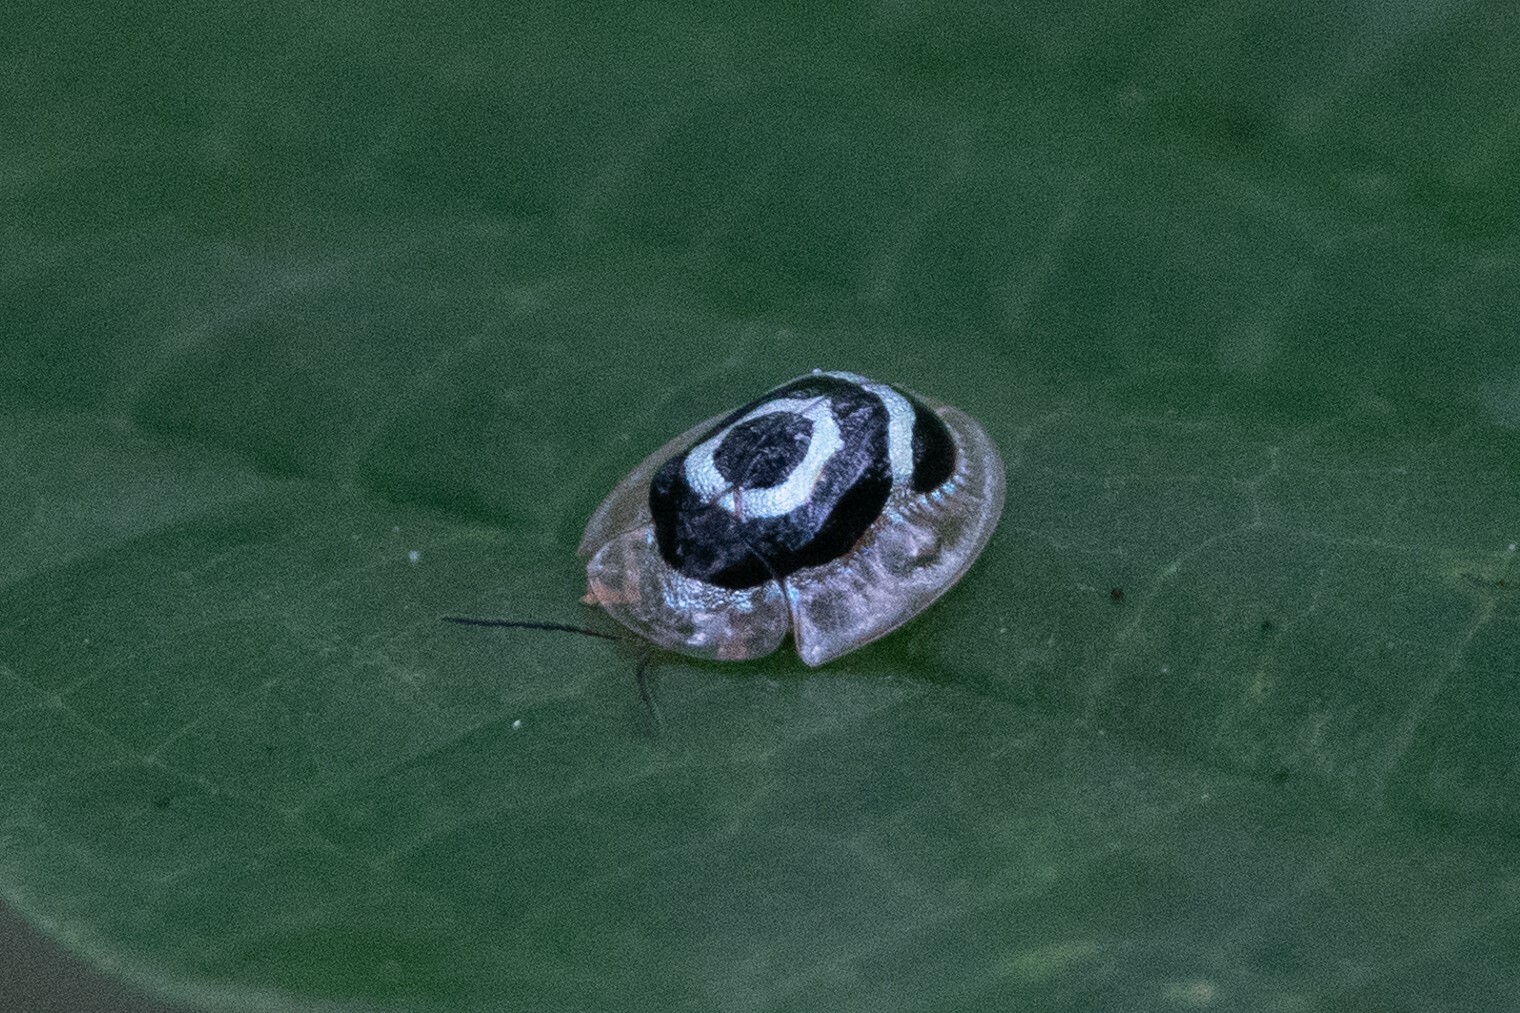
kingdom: Animalia
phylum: Arthropoda
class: Insecta
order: Coleoptera
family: Chrysomelidae
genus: Ischnocodia
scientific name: Ischnocodia annulus
